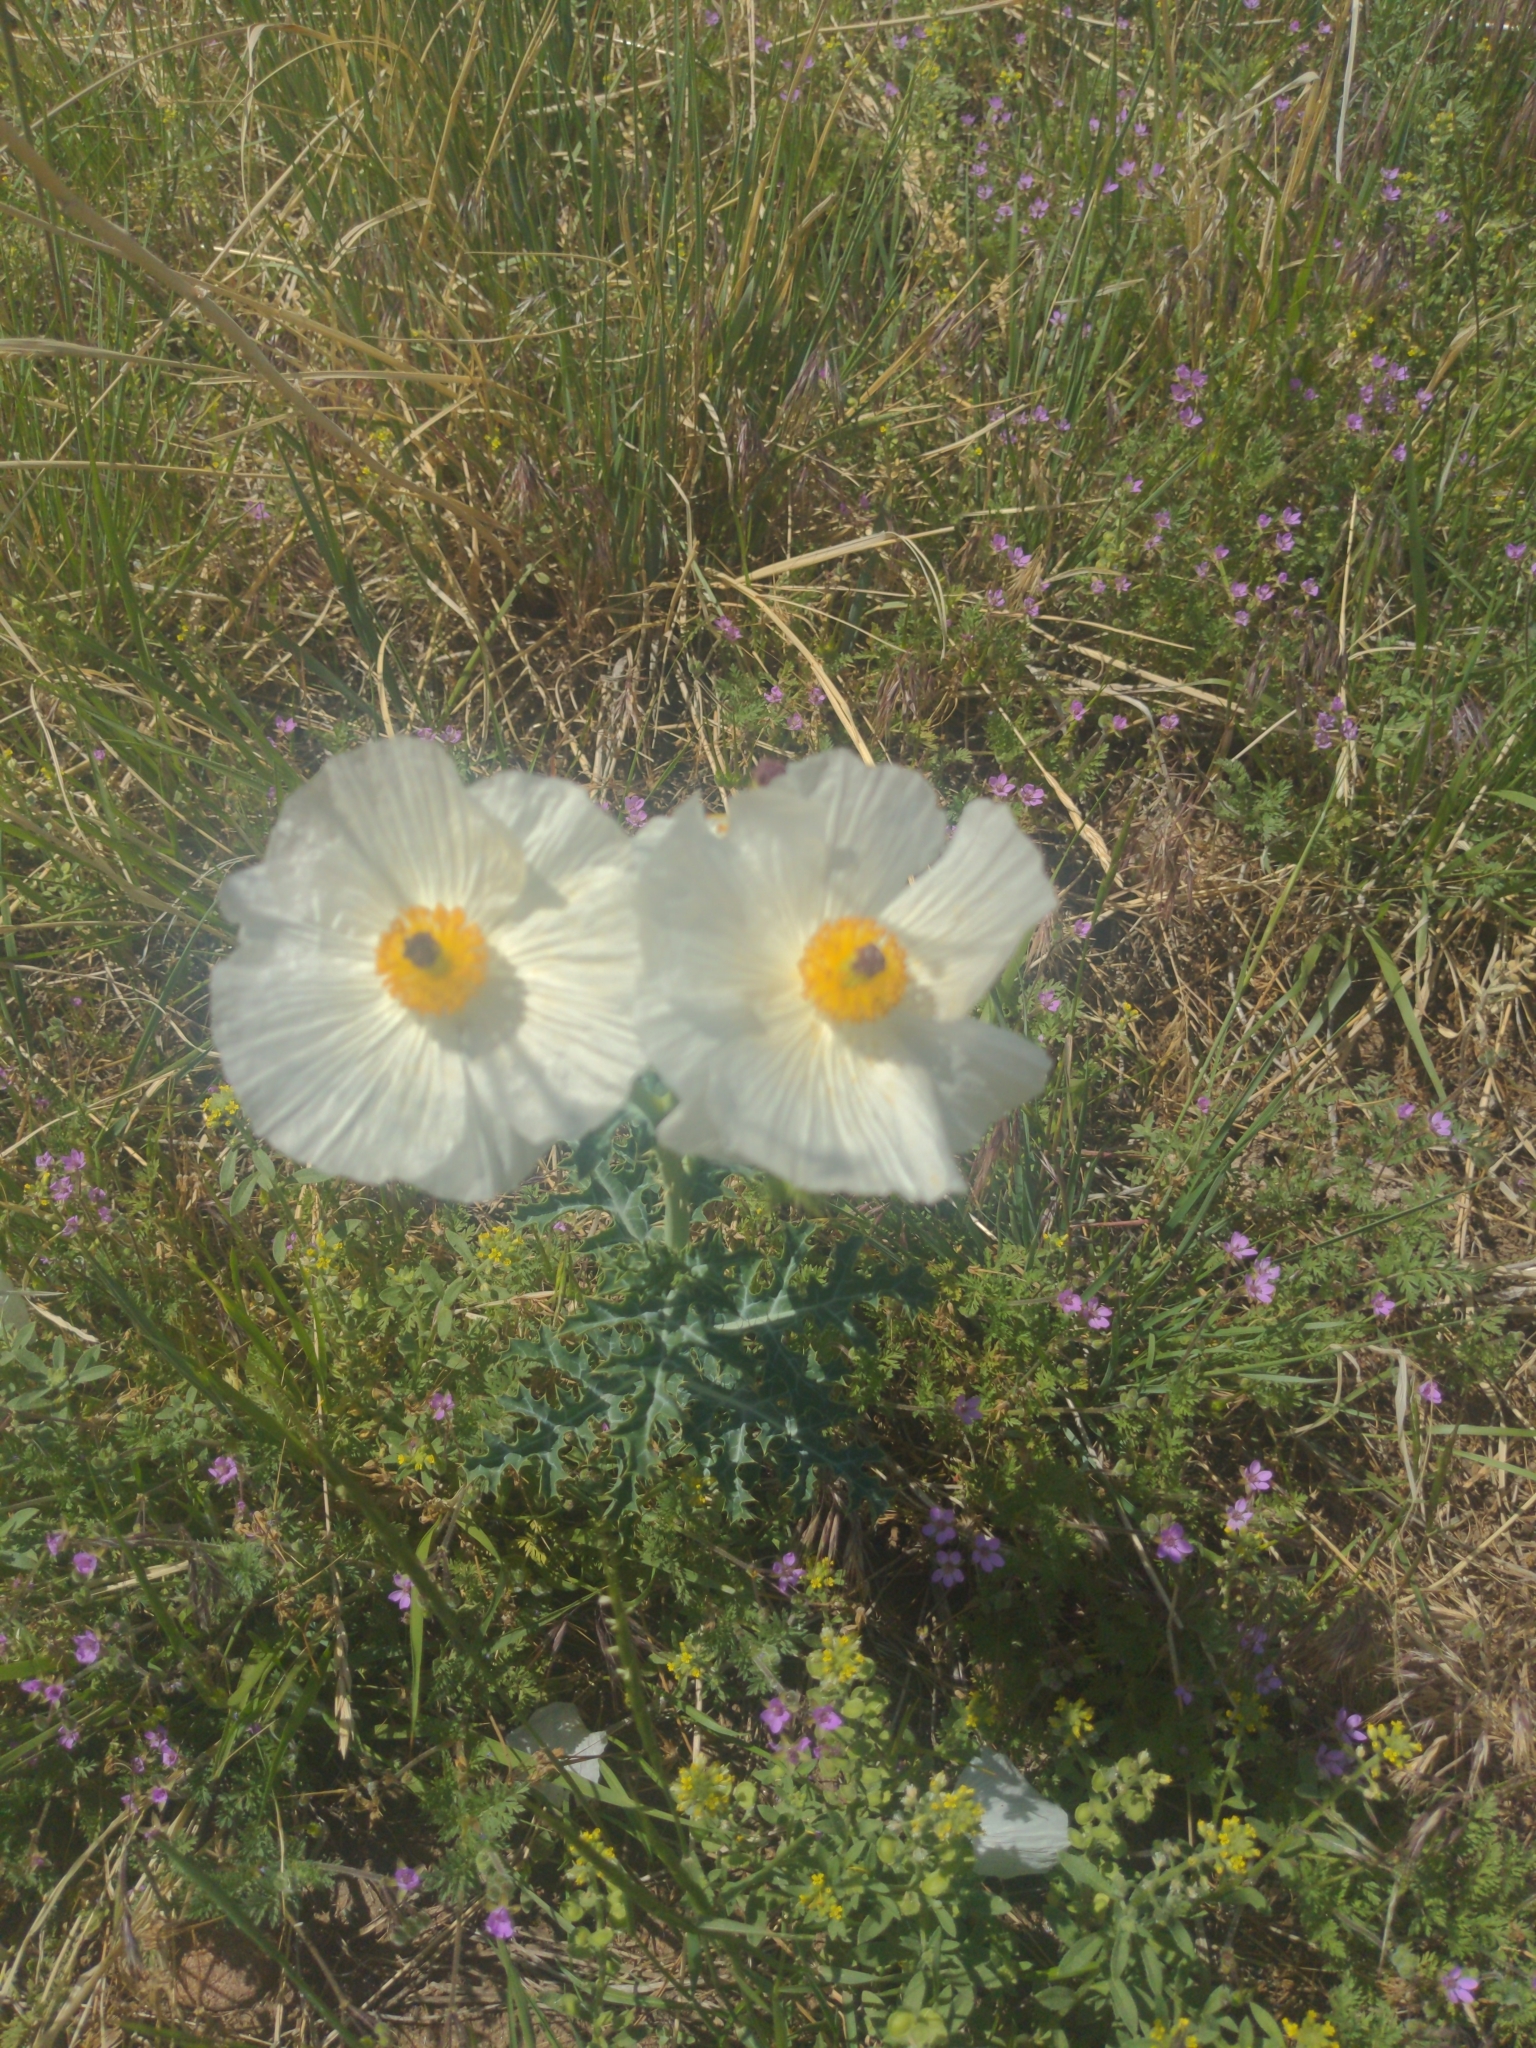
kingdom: Plantae
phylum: Tracheophyta
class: Magnoliopsida
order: Ranunculales
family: Papaveraceae
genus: Argemone
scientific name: Argemone polyanthemos
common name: Plains prickly-poppy
